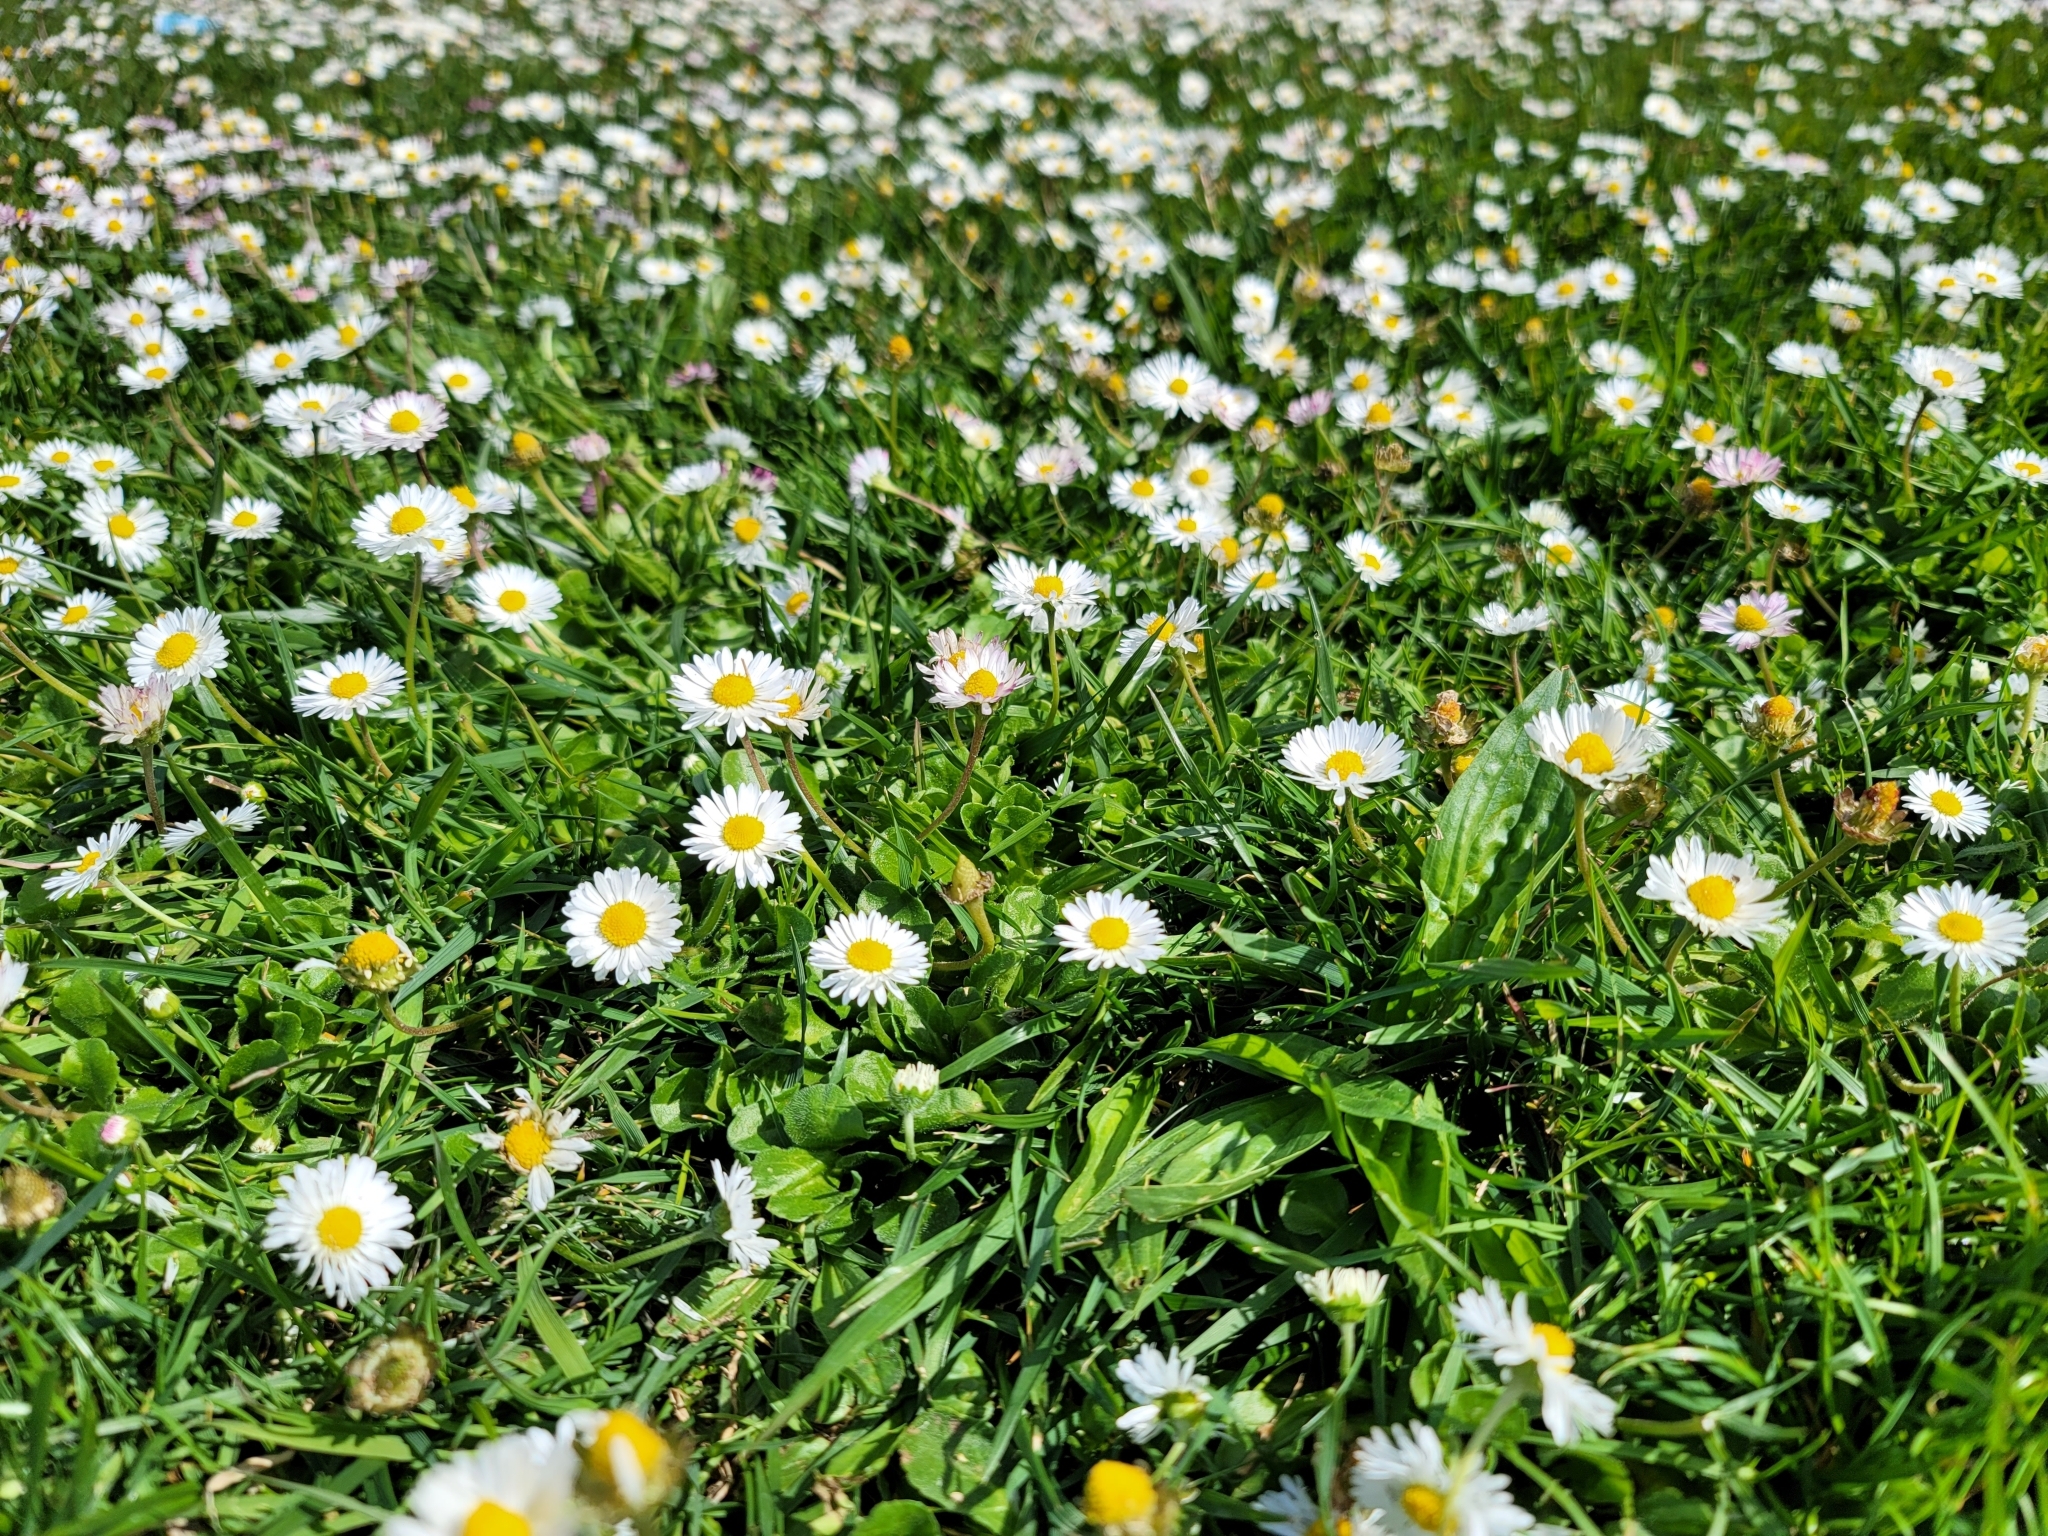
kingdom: Plantae
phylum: Tracheophyta
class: Magnoliopsida
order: Asterales
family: Asteraceae
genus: Bellis
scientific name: Bellis perennis
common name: Lawndaisy
